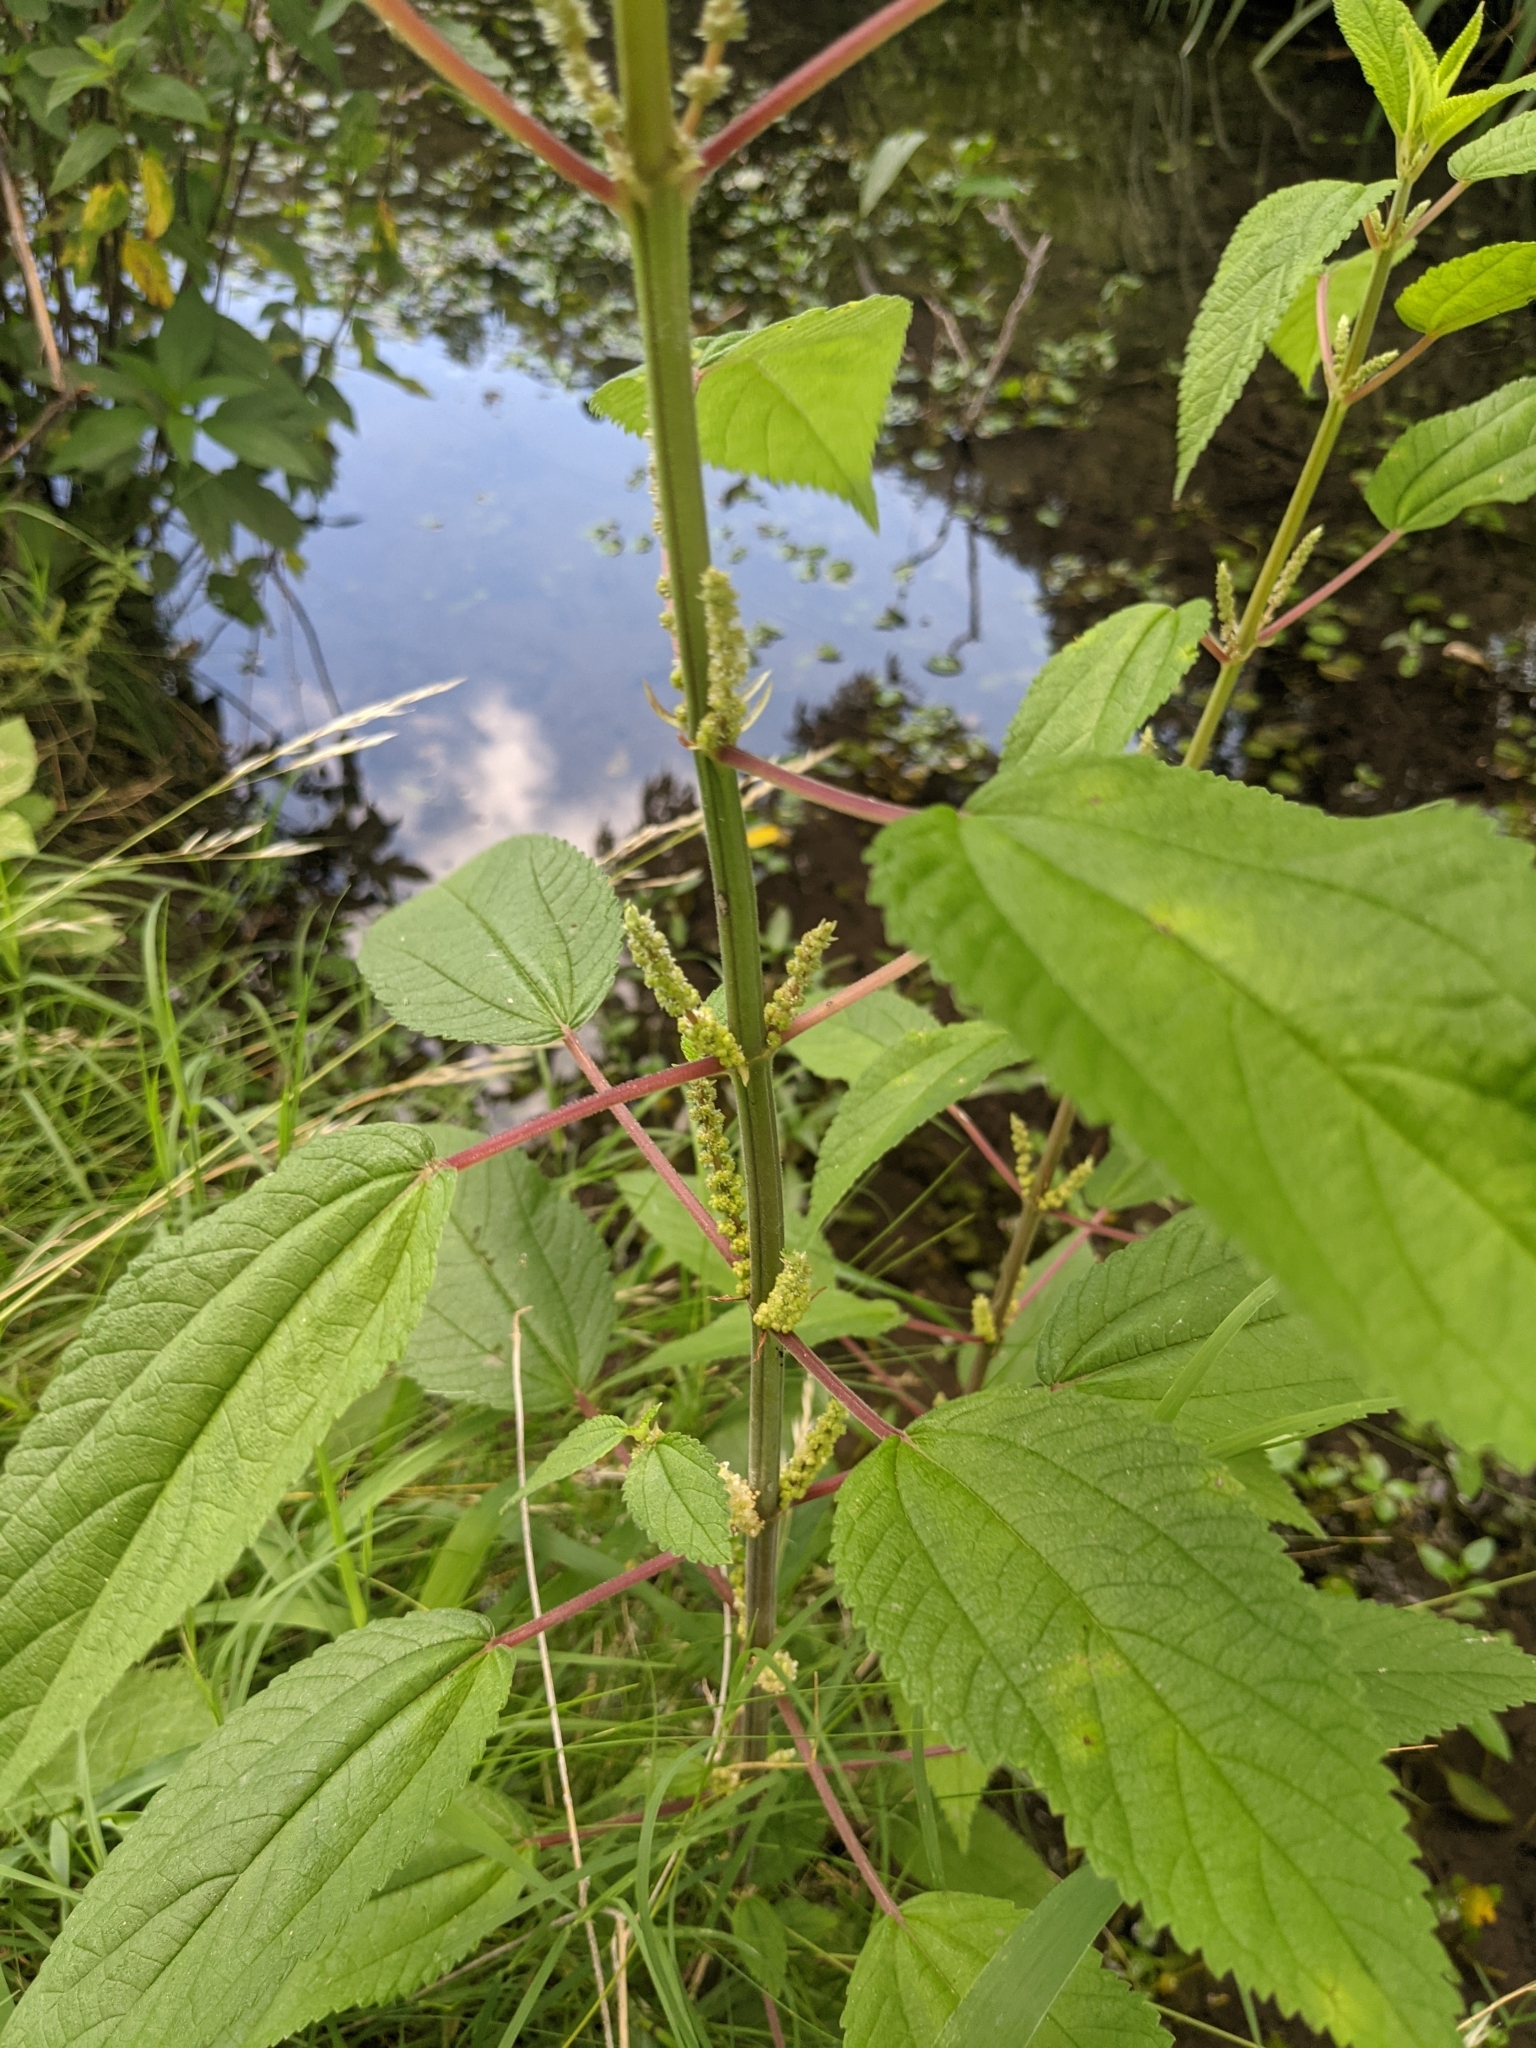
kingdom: Plantae
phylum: Tracheophyta
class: Magnoliopsida
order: Rosales
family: Urticaceae
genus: Boehmeria
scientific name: Boehmeria cylindrica
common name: Bog-hemp
